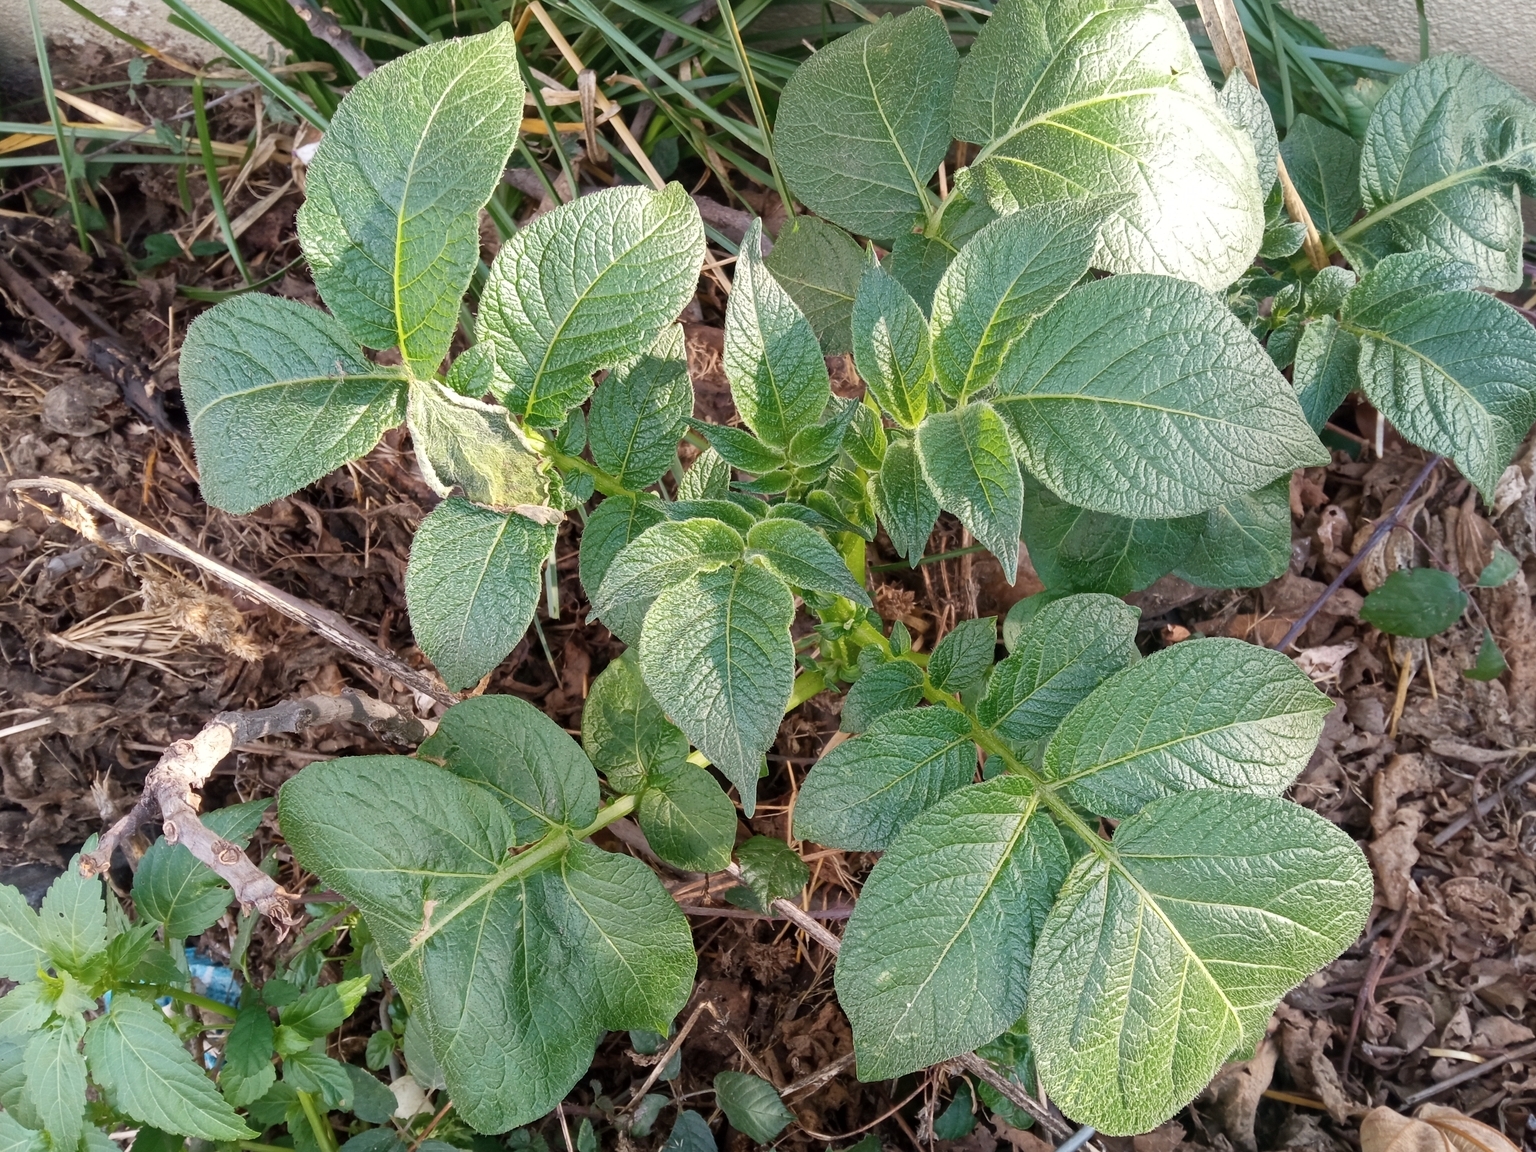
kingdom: Plantae
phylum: Tracheophyta
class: Magnoliopsida
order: Solanales
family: Solanaceae
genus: Solanum
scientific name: Solanum tuberosum
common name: Potato
